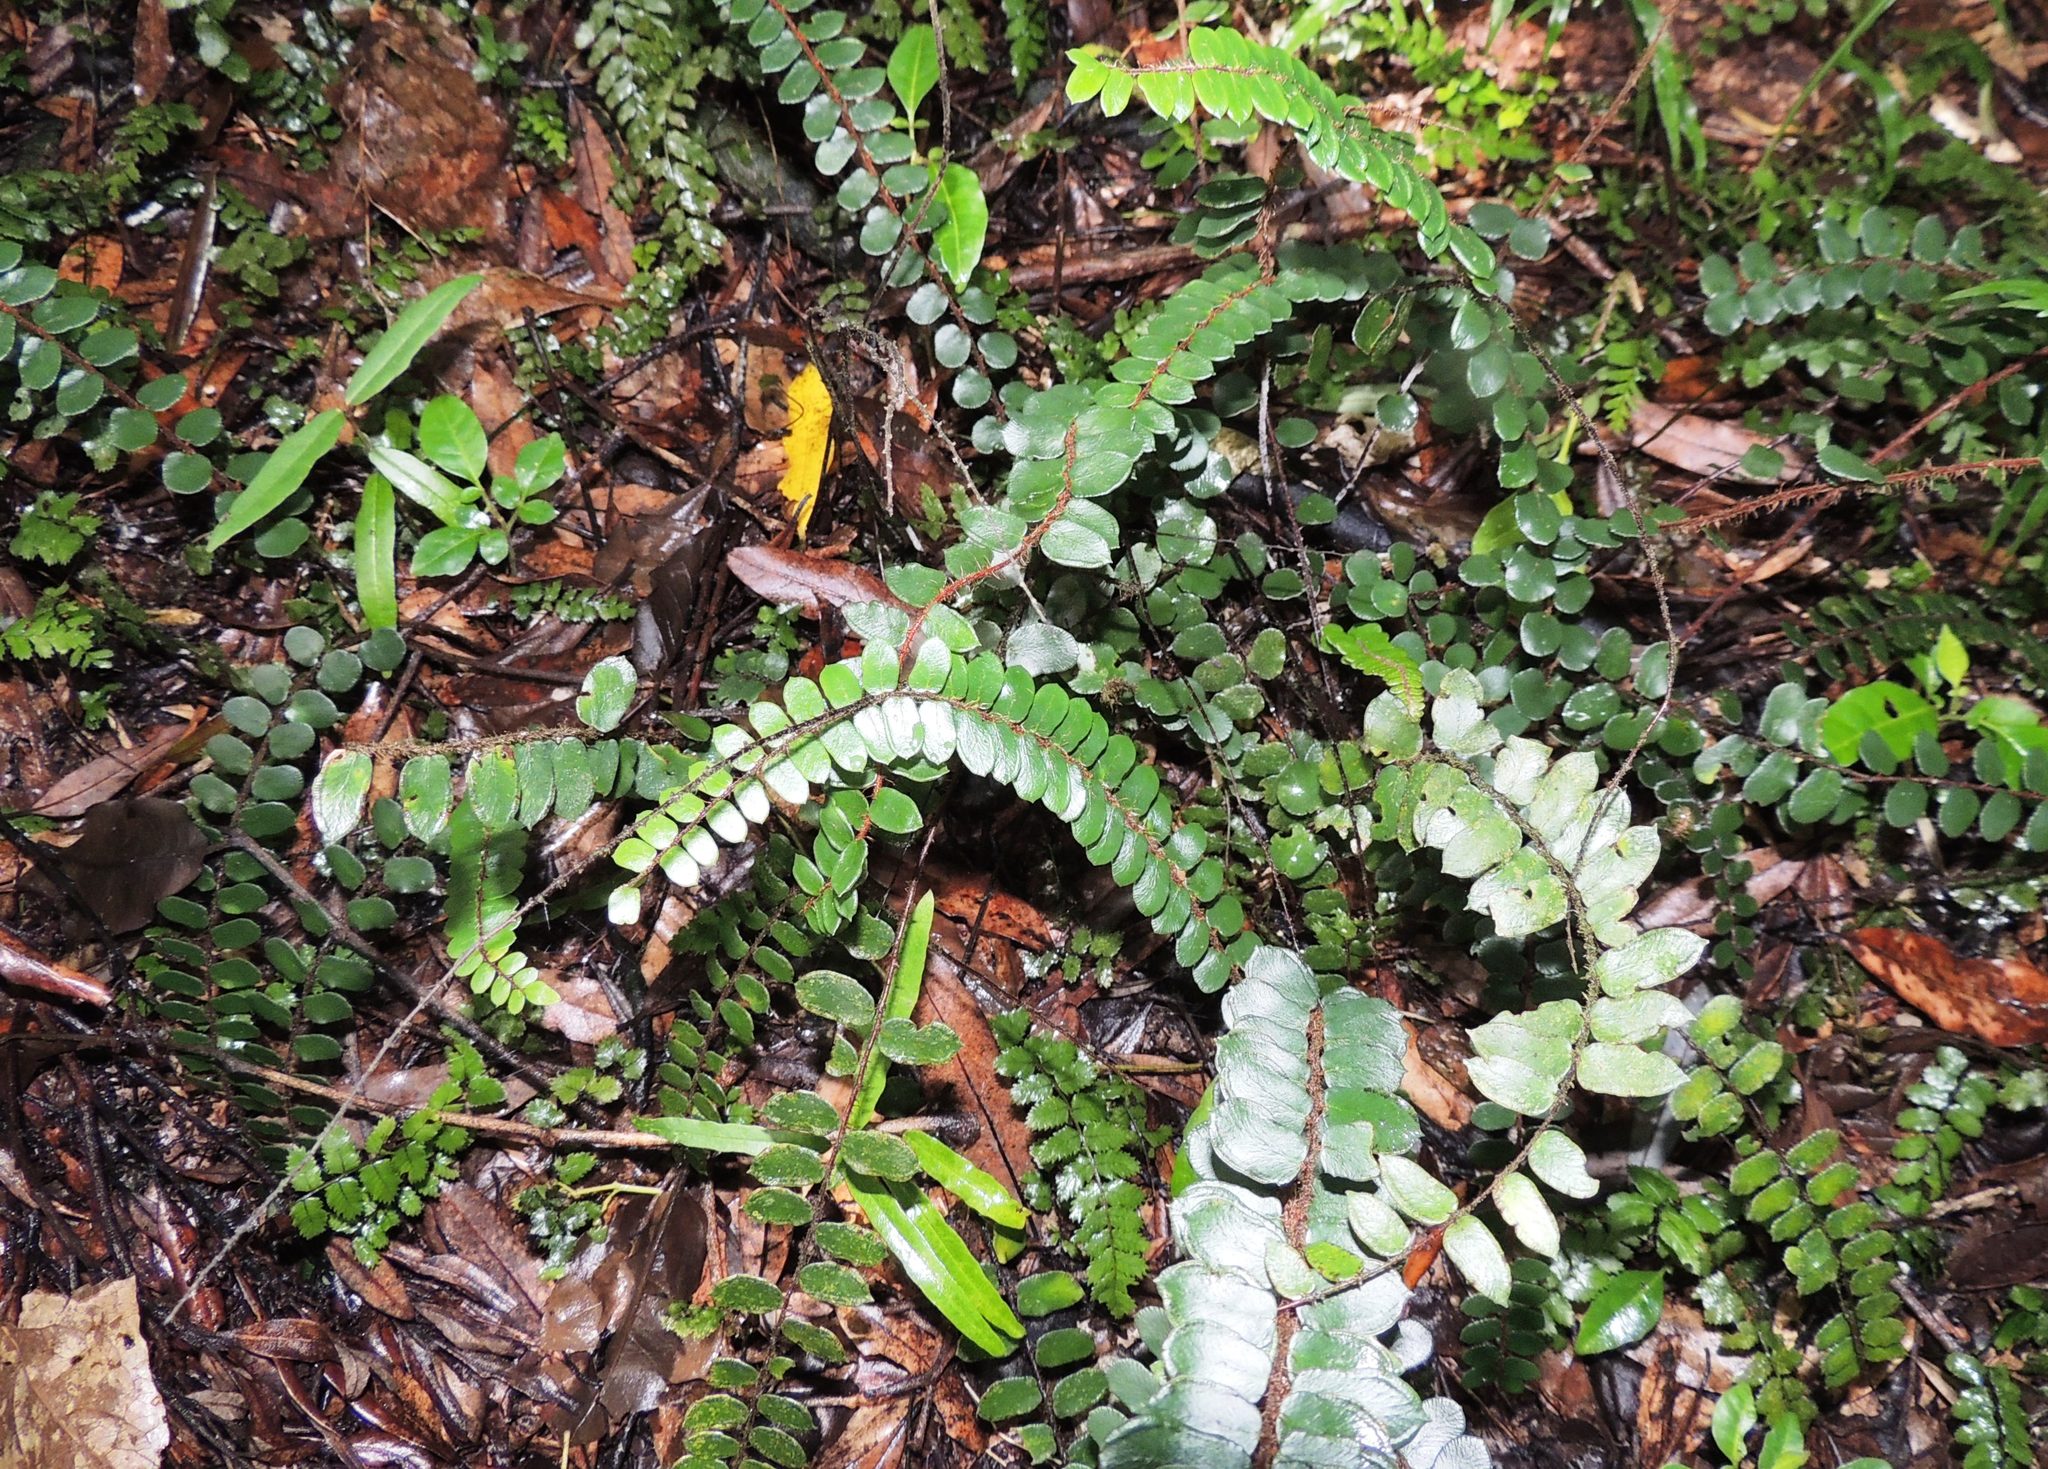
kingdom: Plantae
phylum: Tracheophyta
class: Polypodiopsida
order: Polypodiales
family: Pteridaceae
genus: Pellaea
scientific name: Pellaea rotundifolia
